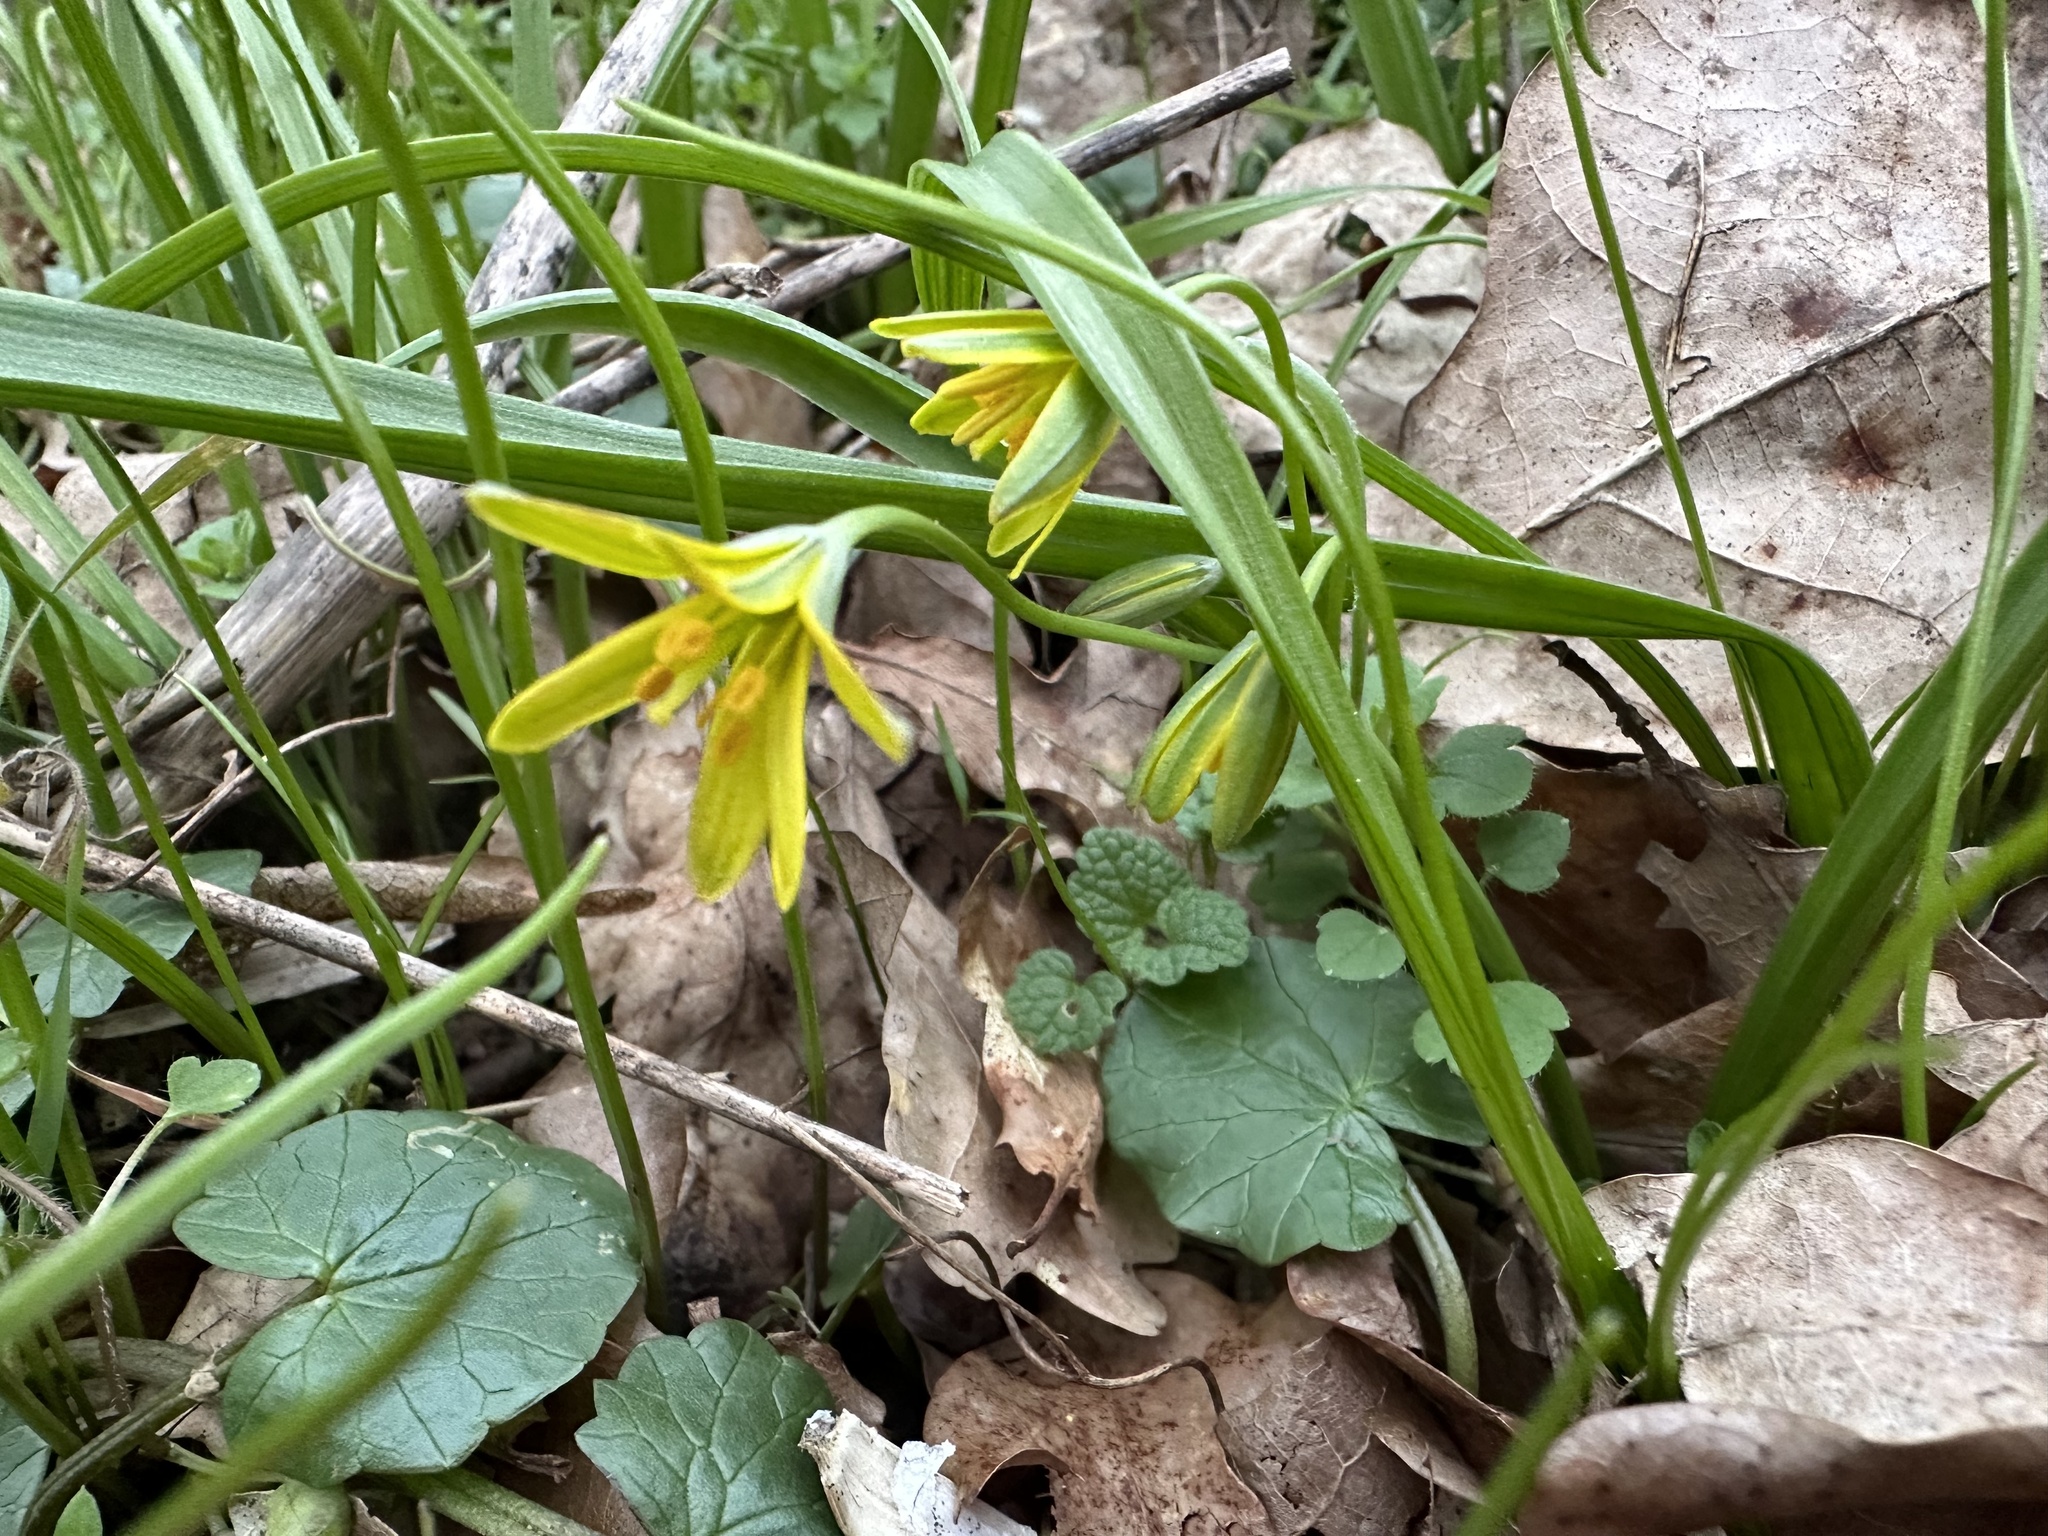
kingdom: Plantae
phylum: Tracheophyta
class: Liliopsida
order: Liliales
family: Liliaceae
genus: Gagea
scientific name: Gagea lutea
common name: Yellow star-of-bethlehem
